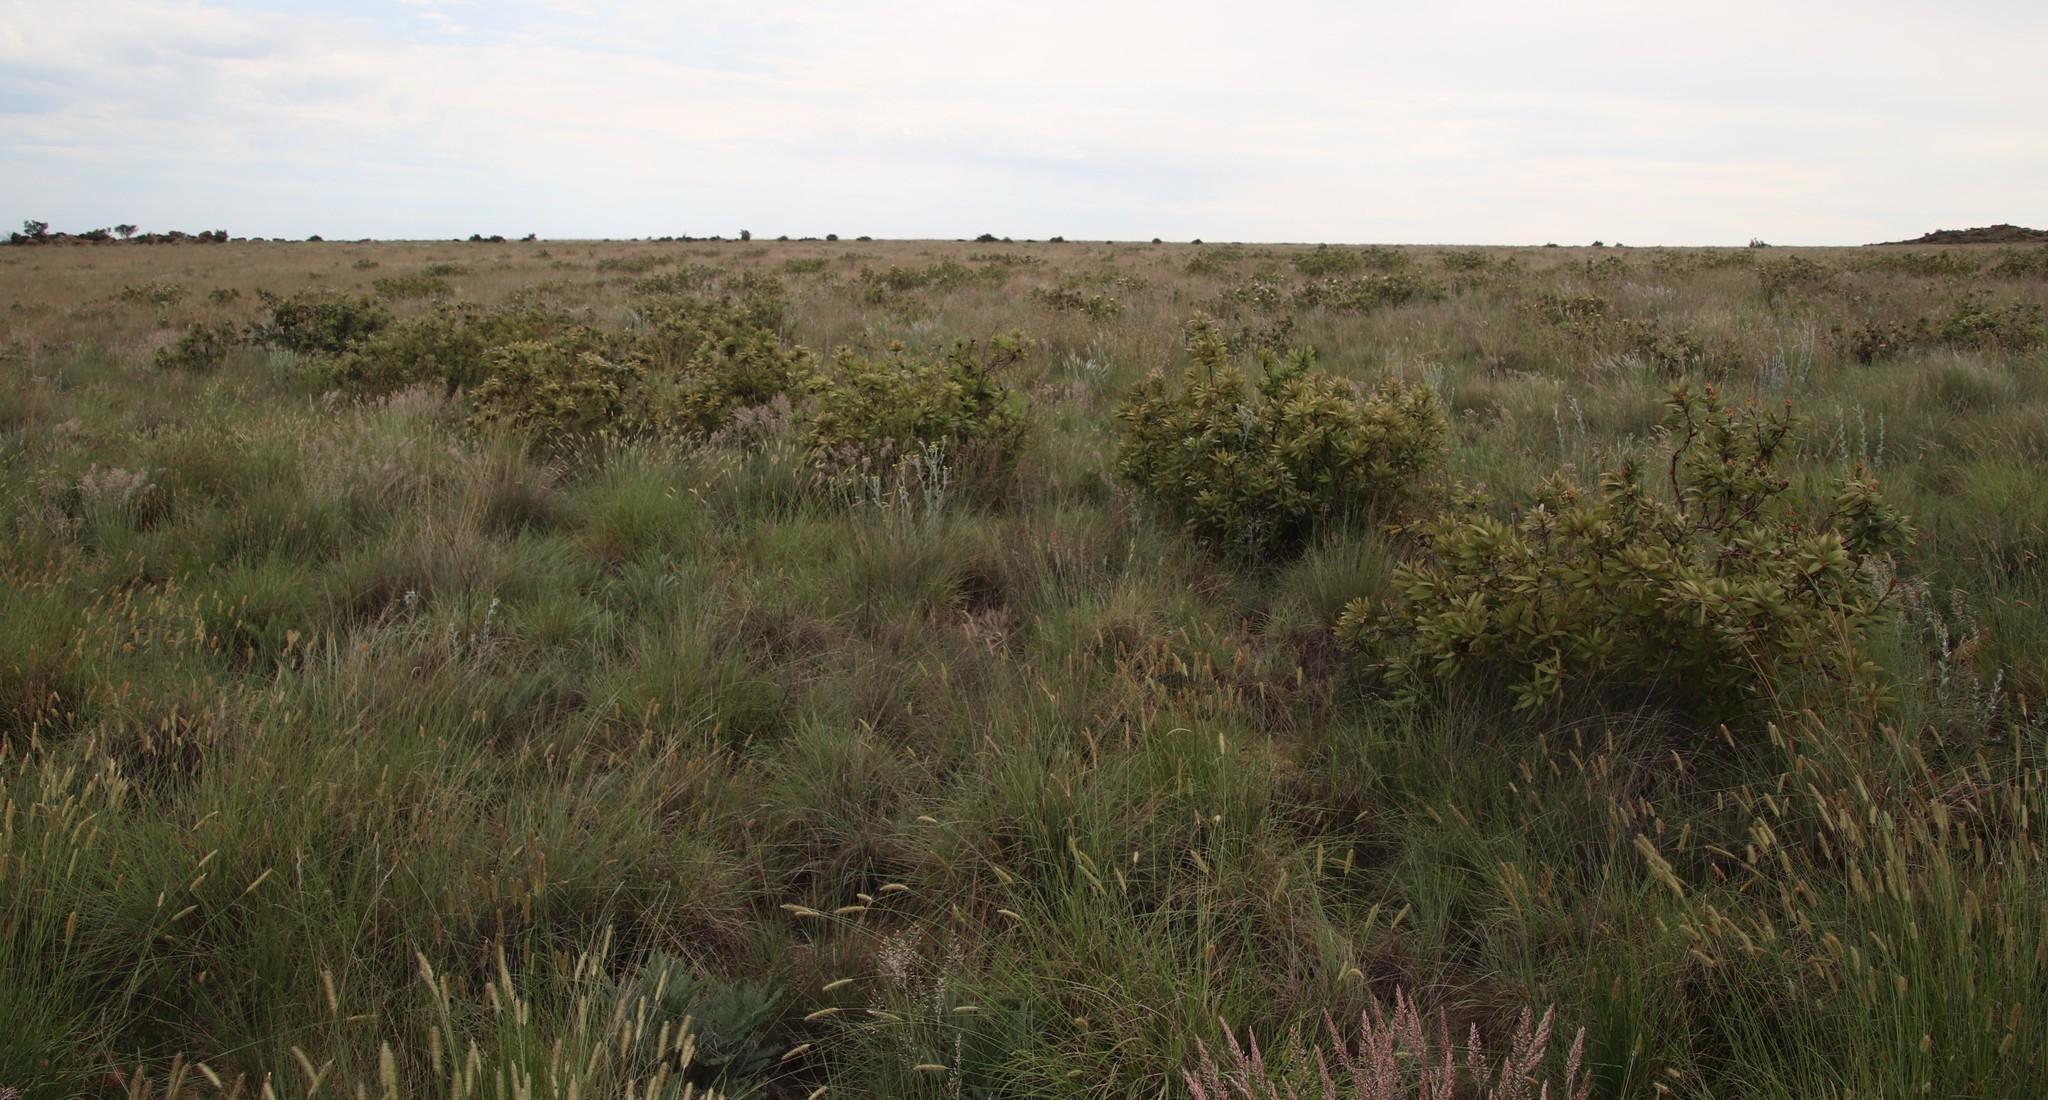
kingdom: Plantae
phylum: Tracheophyta
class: Magnoliopsida
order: Proteales
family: Proteaceae
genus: Protea
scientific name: Protea welwitschii
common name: Cluster-head protea
